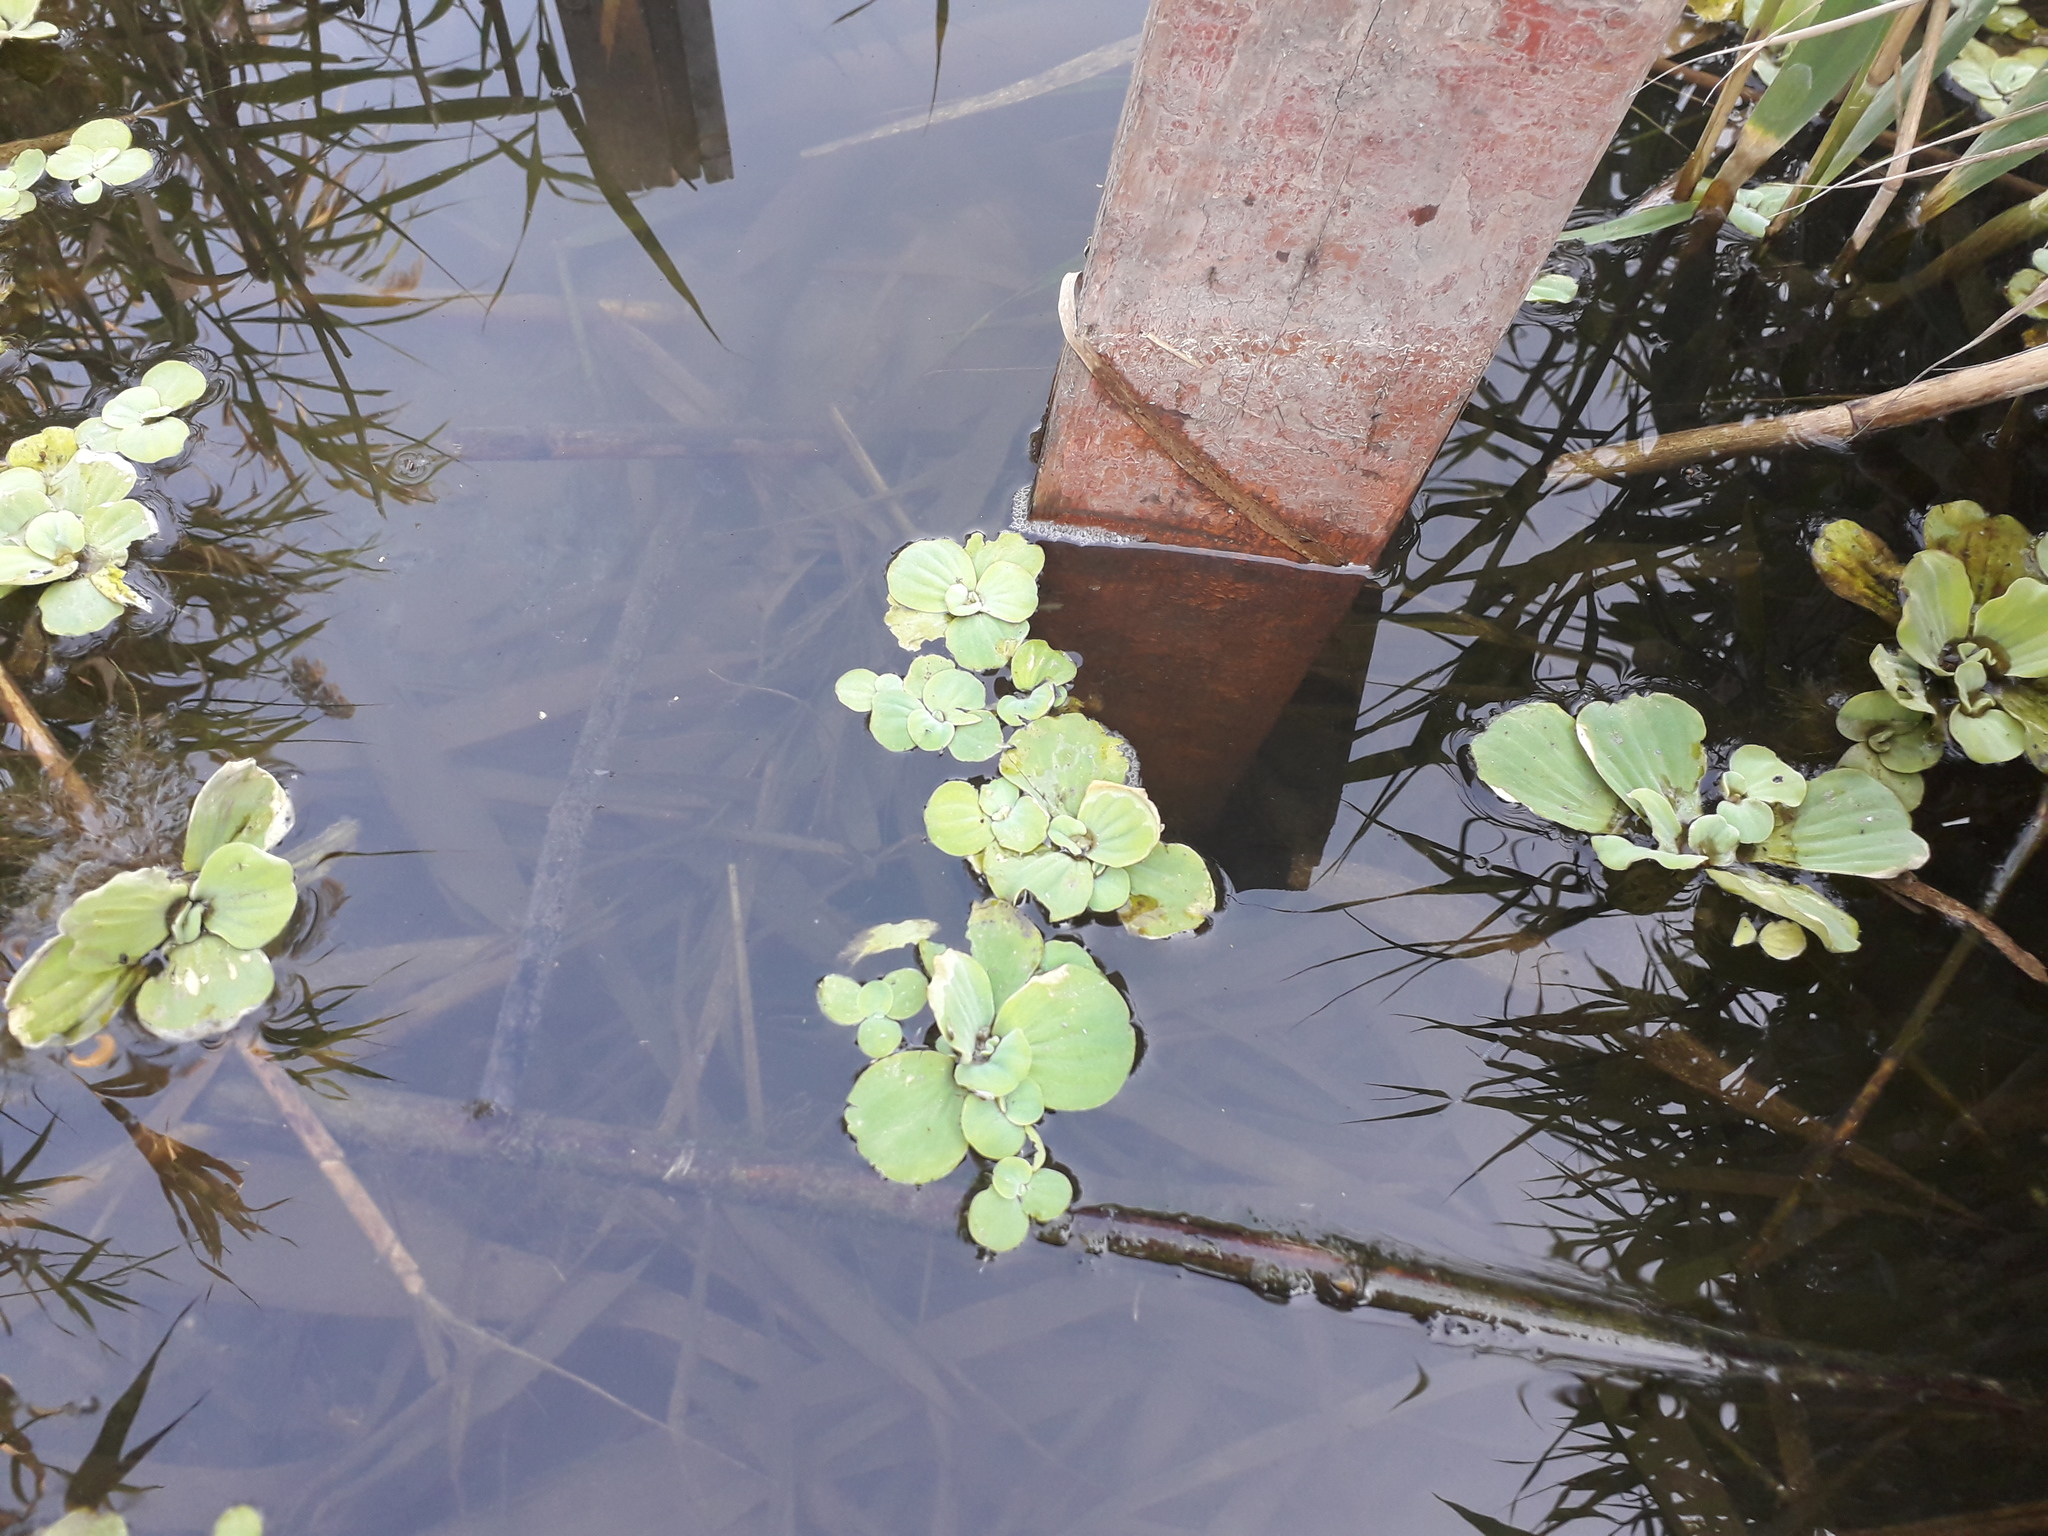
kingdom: Plantae
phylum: Tracheophyta
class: Liliopsida
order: Alismatales
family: Araceae
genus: Pistia
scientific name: Pistia stratiotes
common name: Water lettuce
